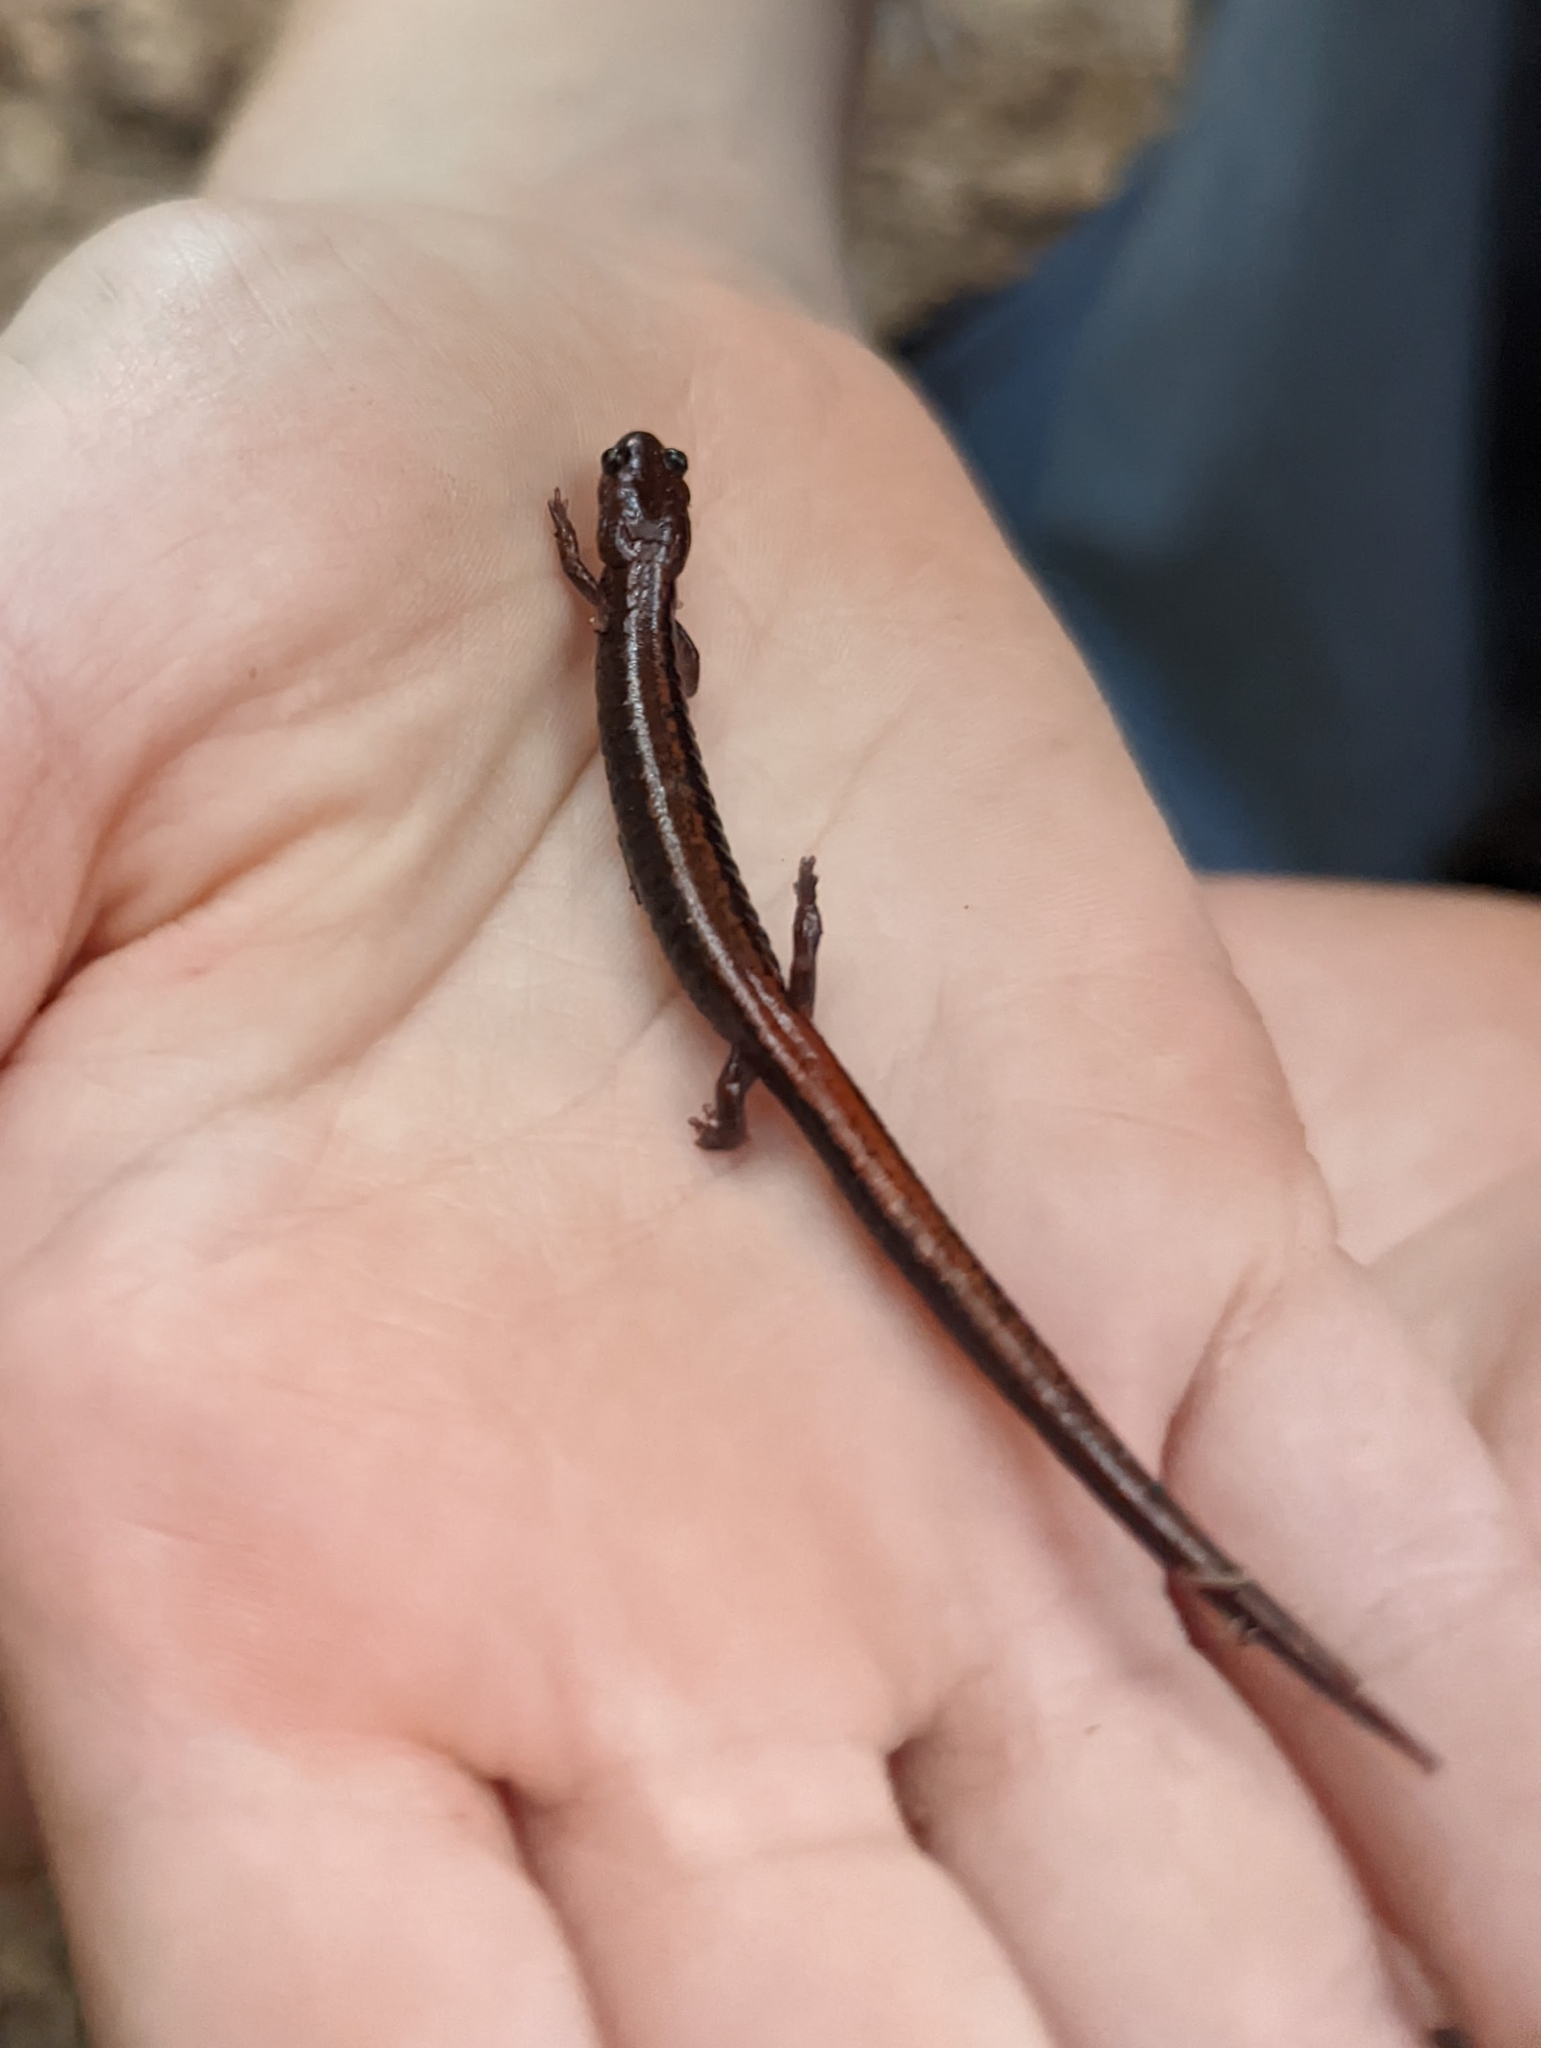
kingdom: Animalia
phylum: Chordata
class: Amphibia
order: Caudata
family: Plethodontidae
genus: Plethodon
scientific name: Plethodon cinereus
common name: Redback salamander
